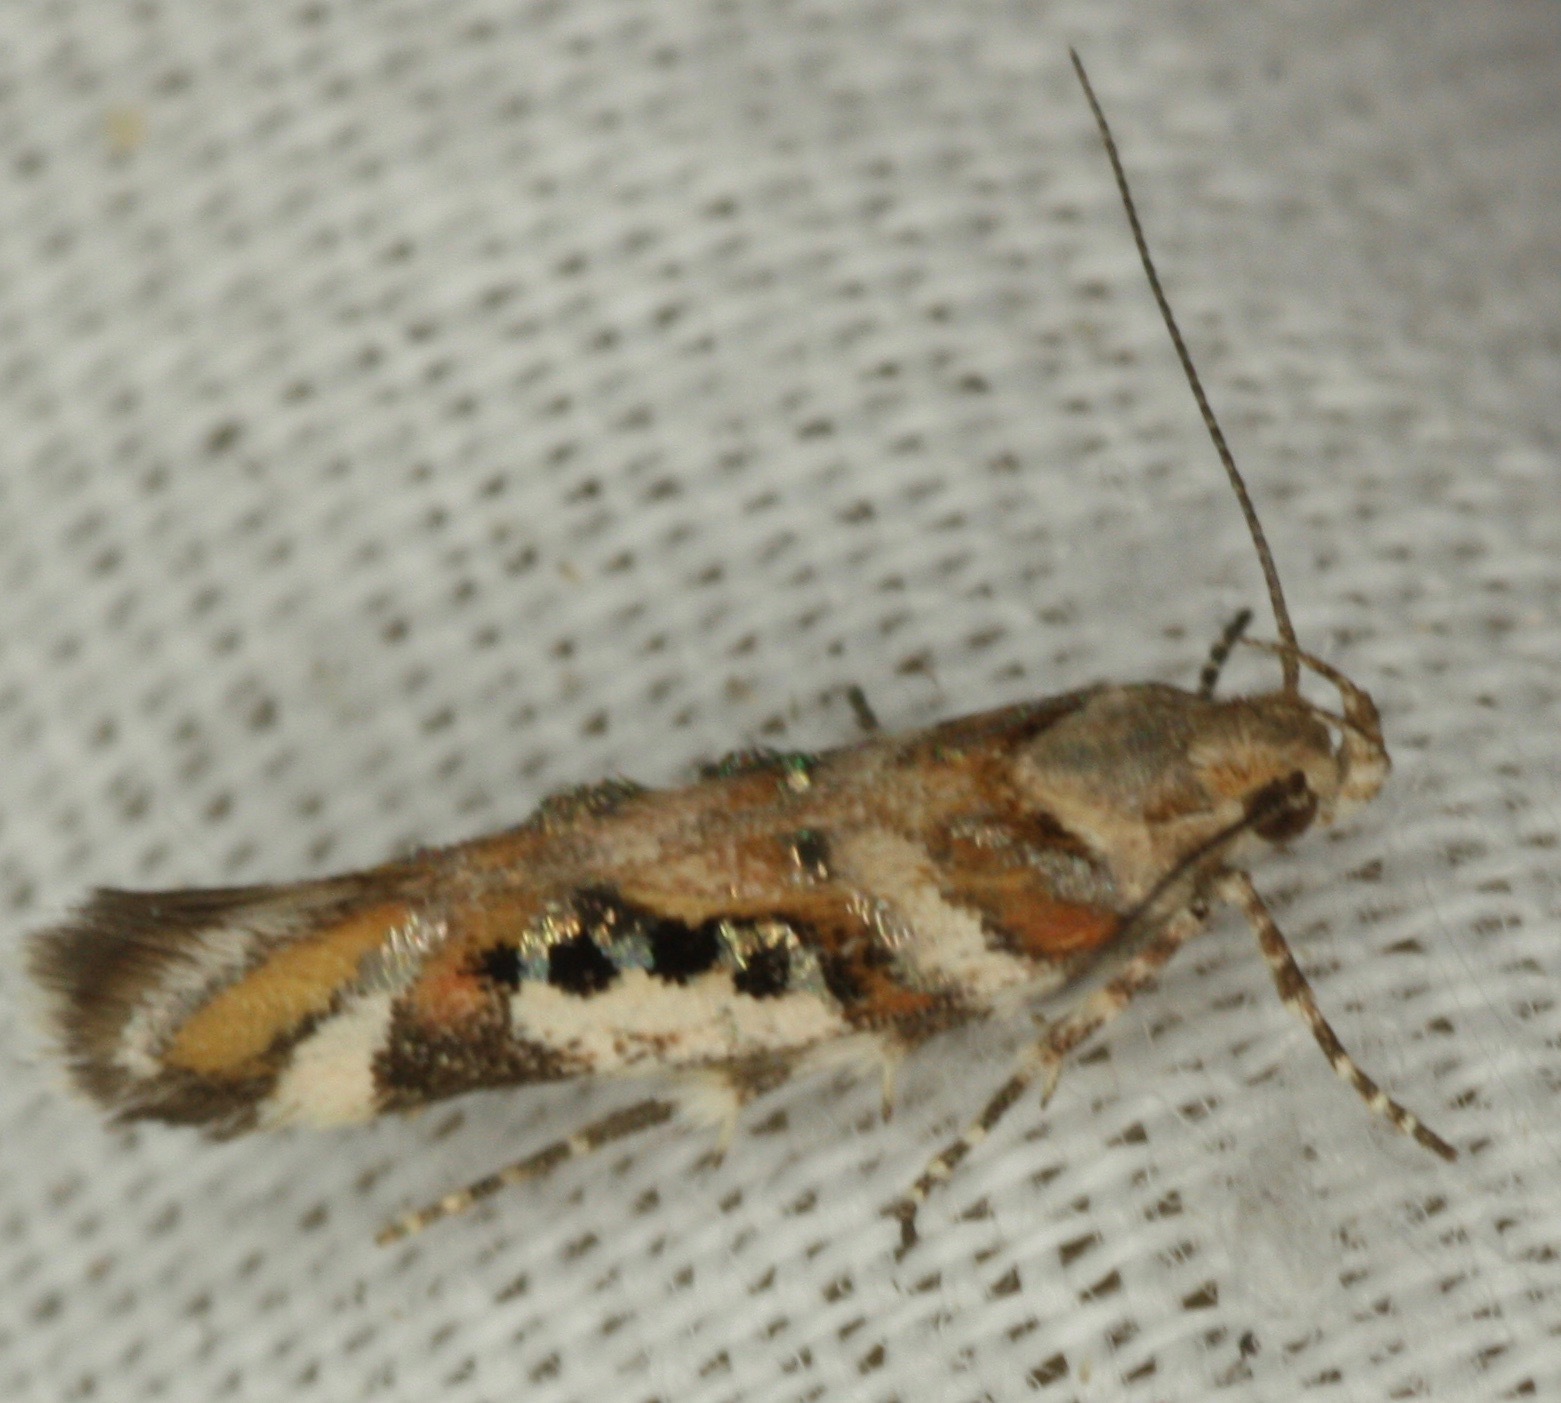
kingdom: Animalia
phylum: Arthropoda
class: Insecta
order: Lepidoptera
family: Gelechiidae
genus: Aristotelia
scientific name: Aristotelia elegantella
